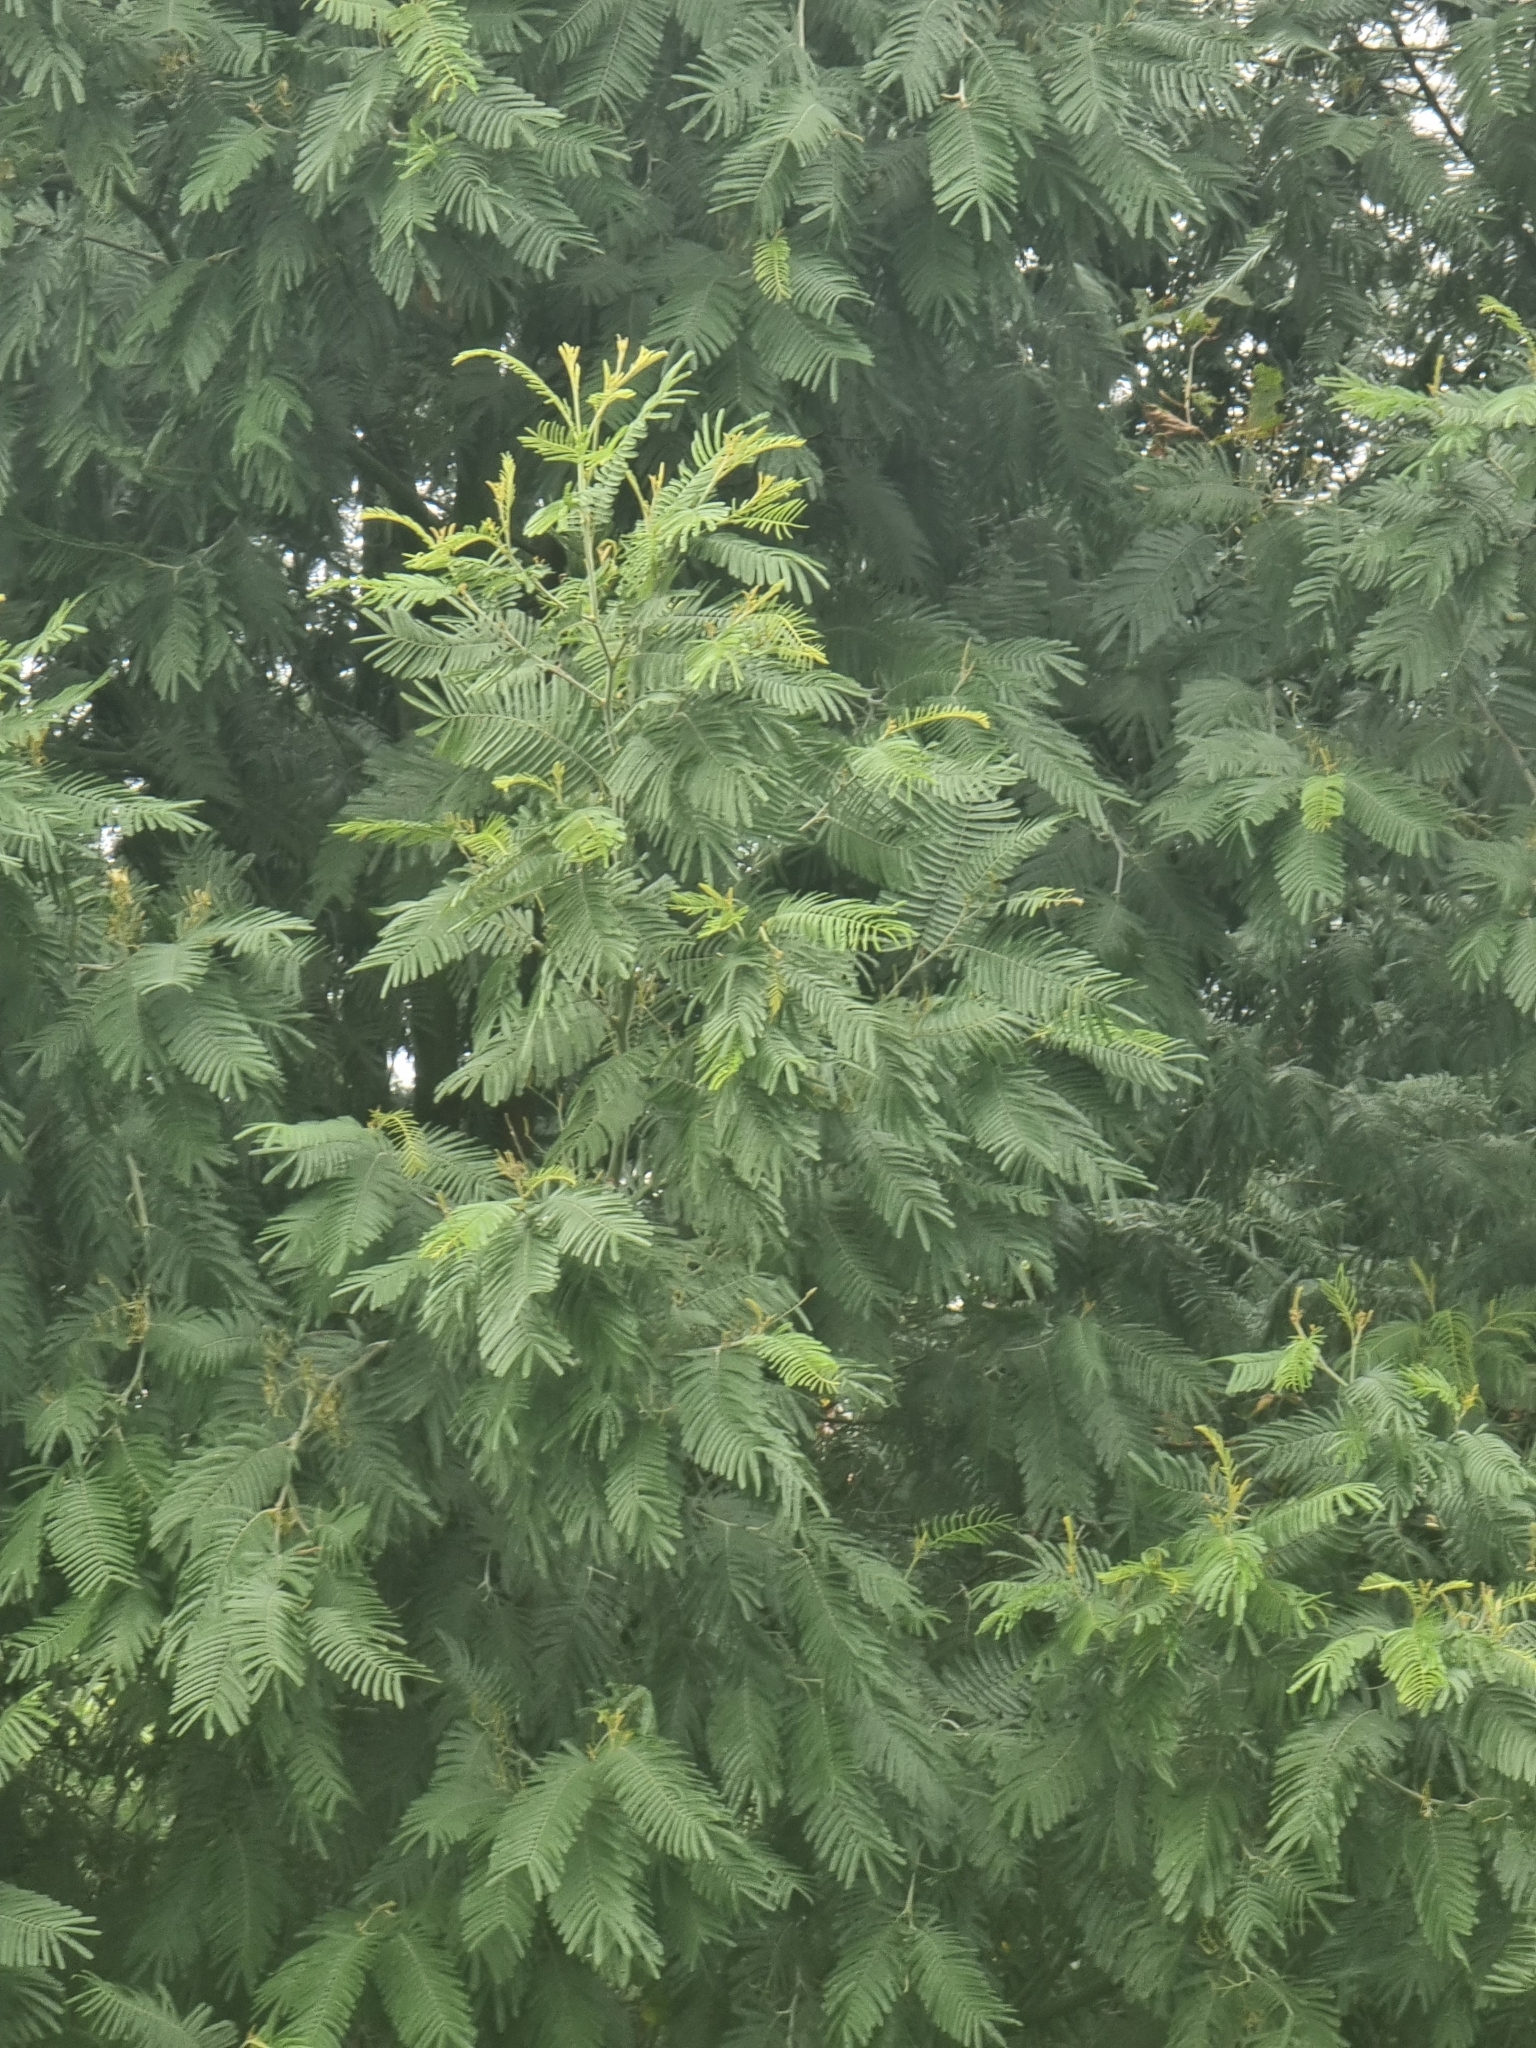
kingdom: Plantae
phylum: Tracheophyta
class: Magnoliopsida
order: Fabales
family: Fabaceae
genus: Acacia
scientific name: Acacia mearnsii
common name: Black wattle
